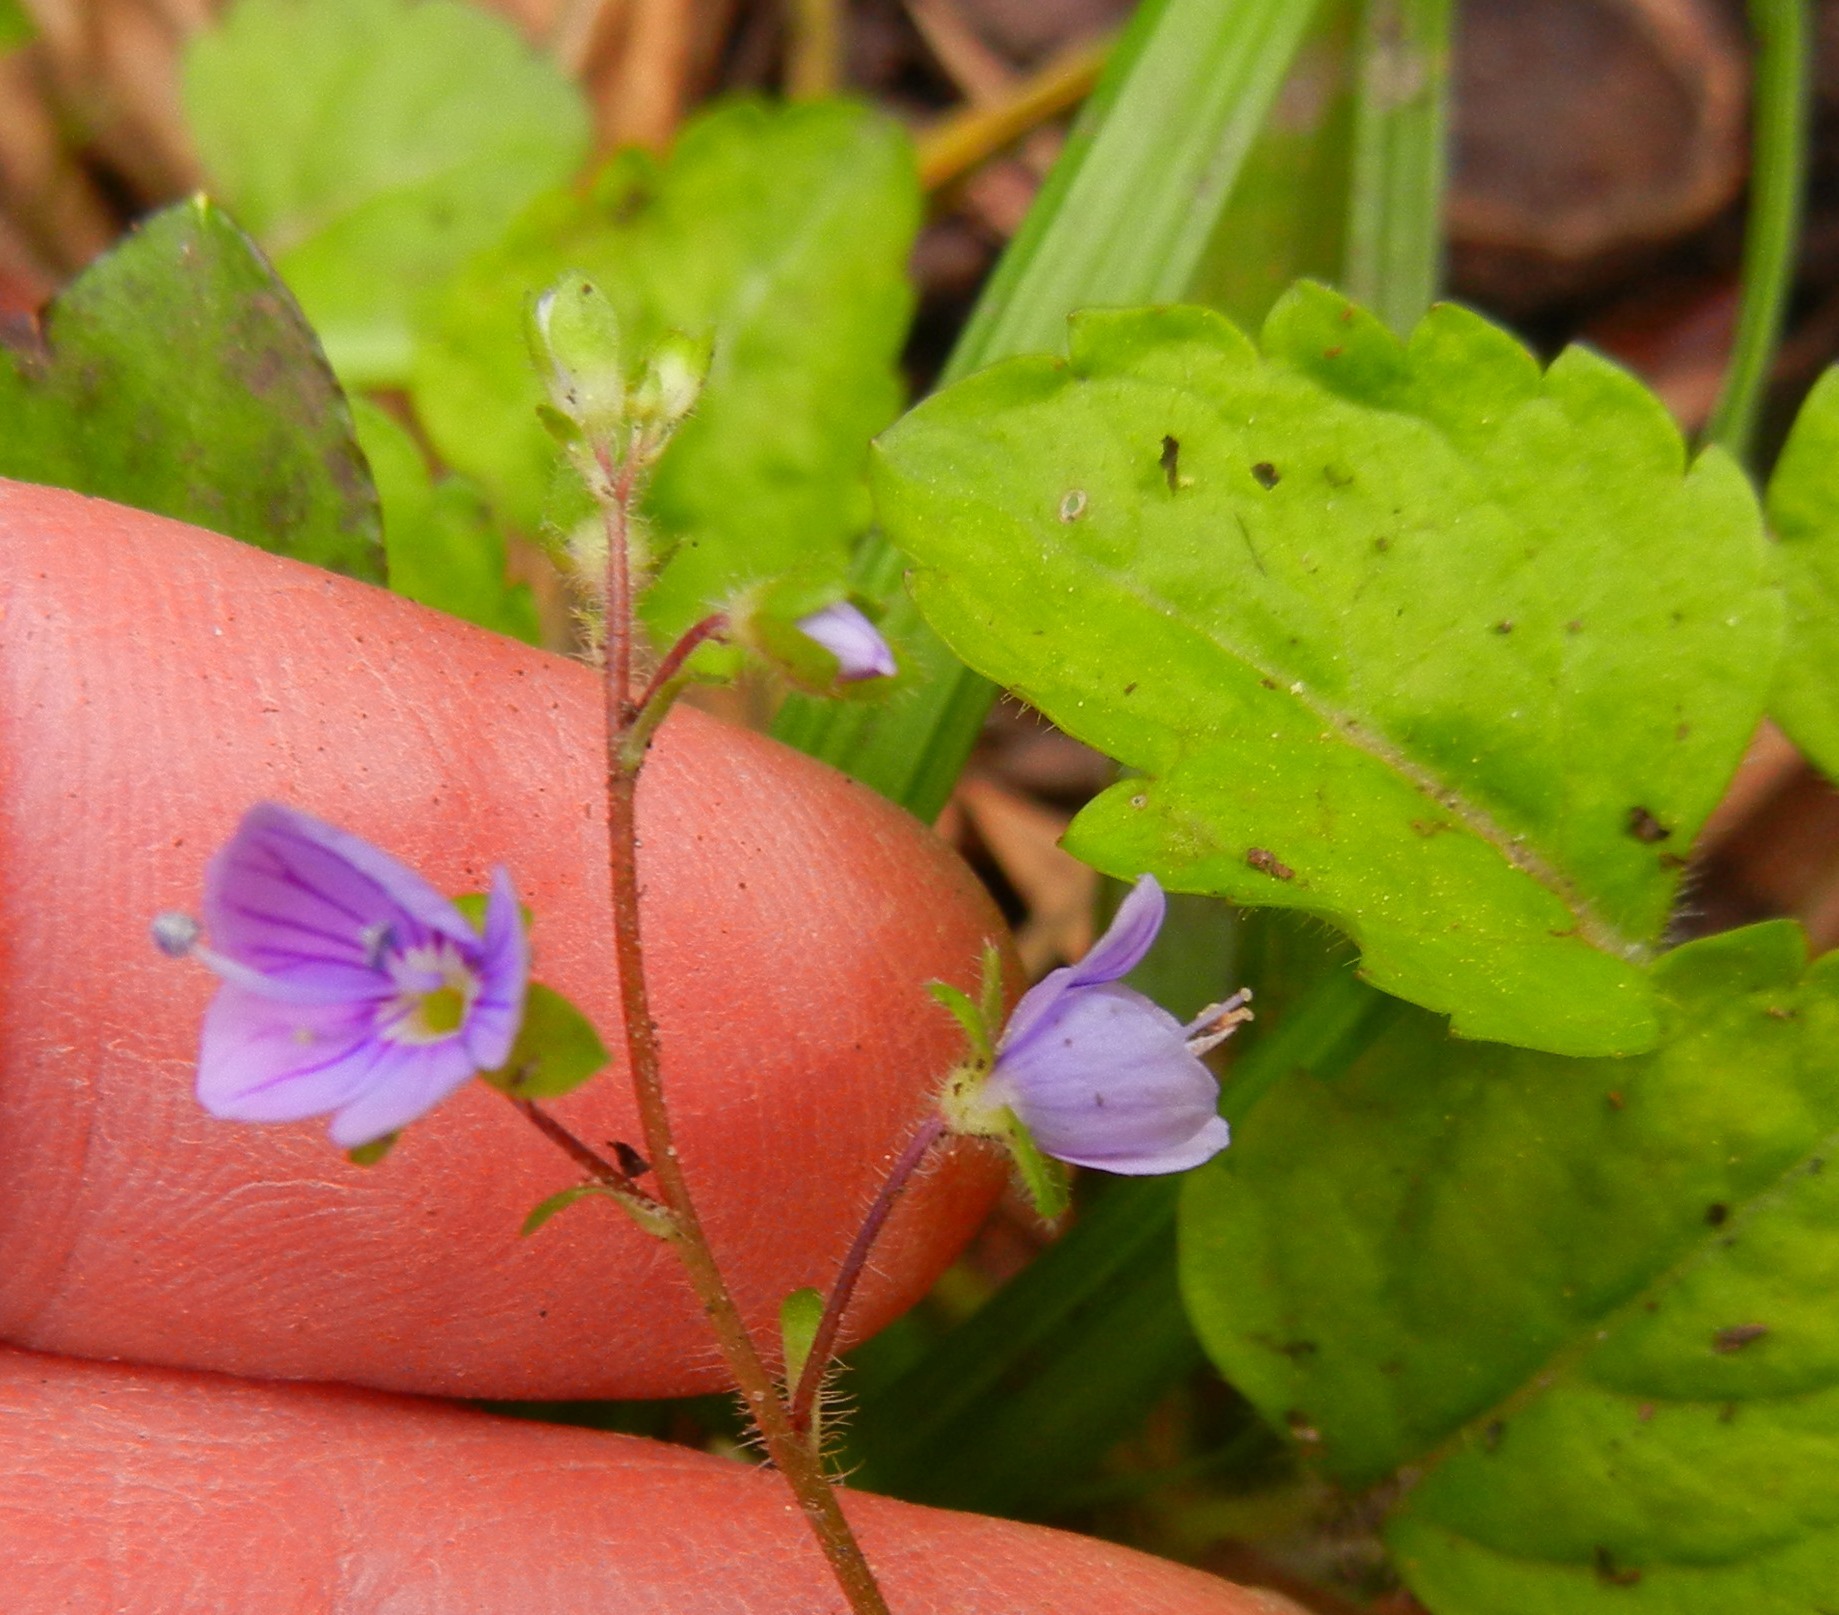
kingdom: Plantae
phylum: Tracheophyta
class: Magnoliopsida
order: Lamiales
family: Plantaginaceae
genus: Veronica
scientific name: Veronica montana
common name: Wood speedwell
